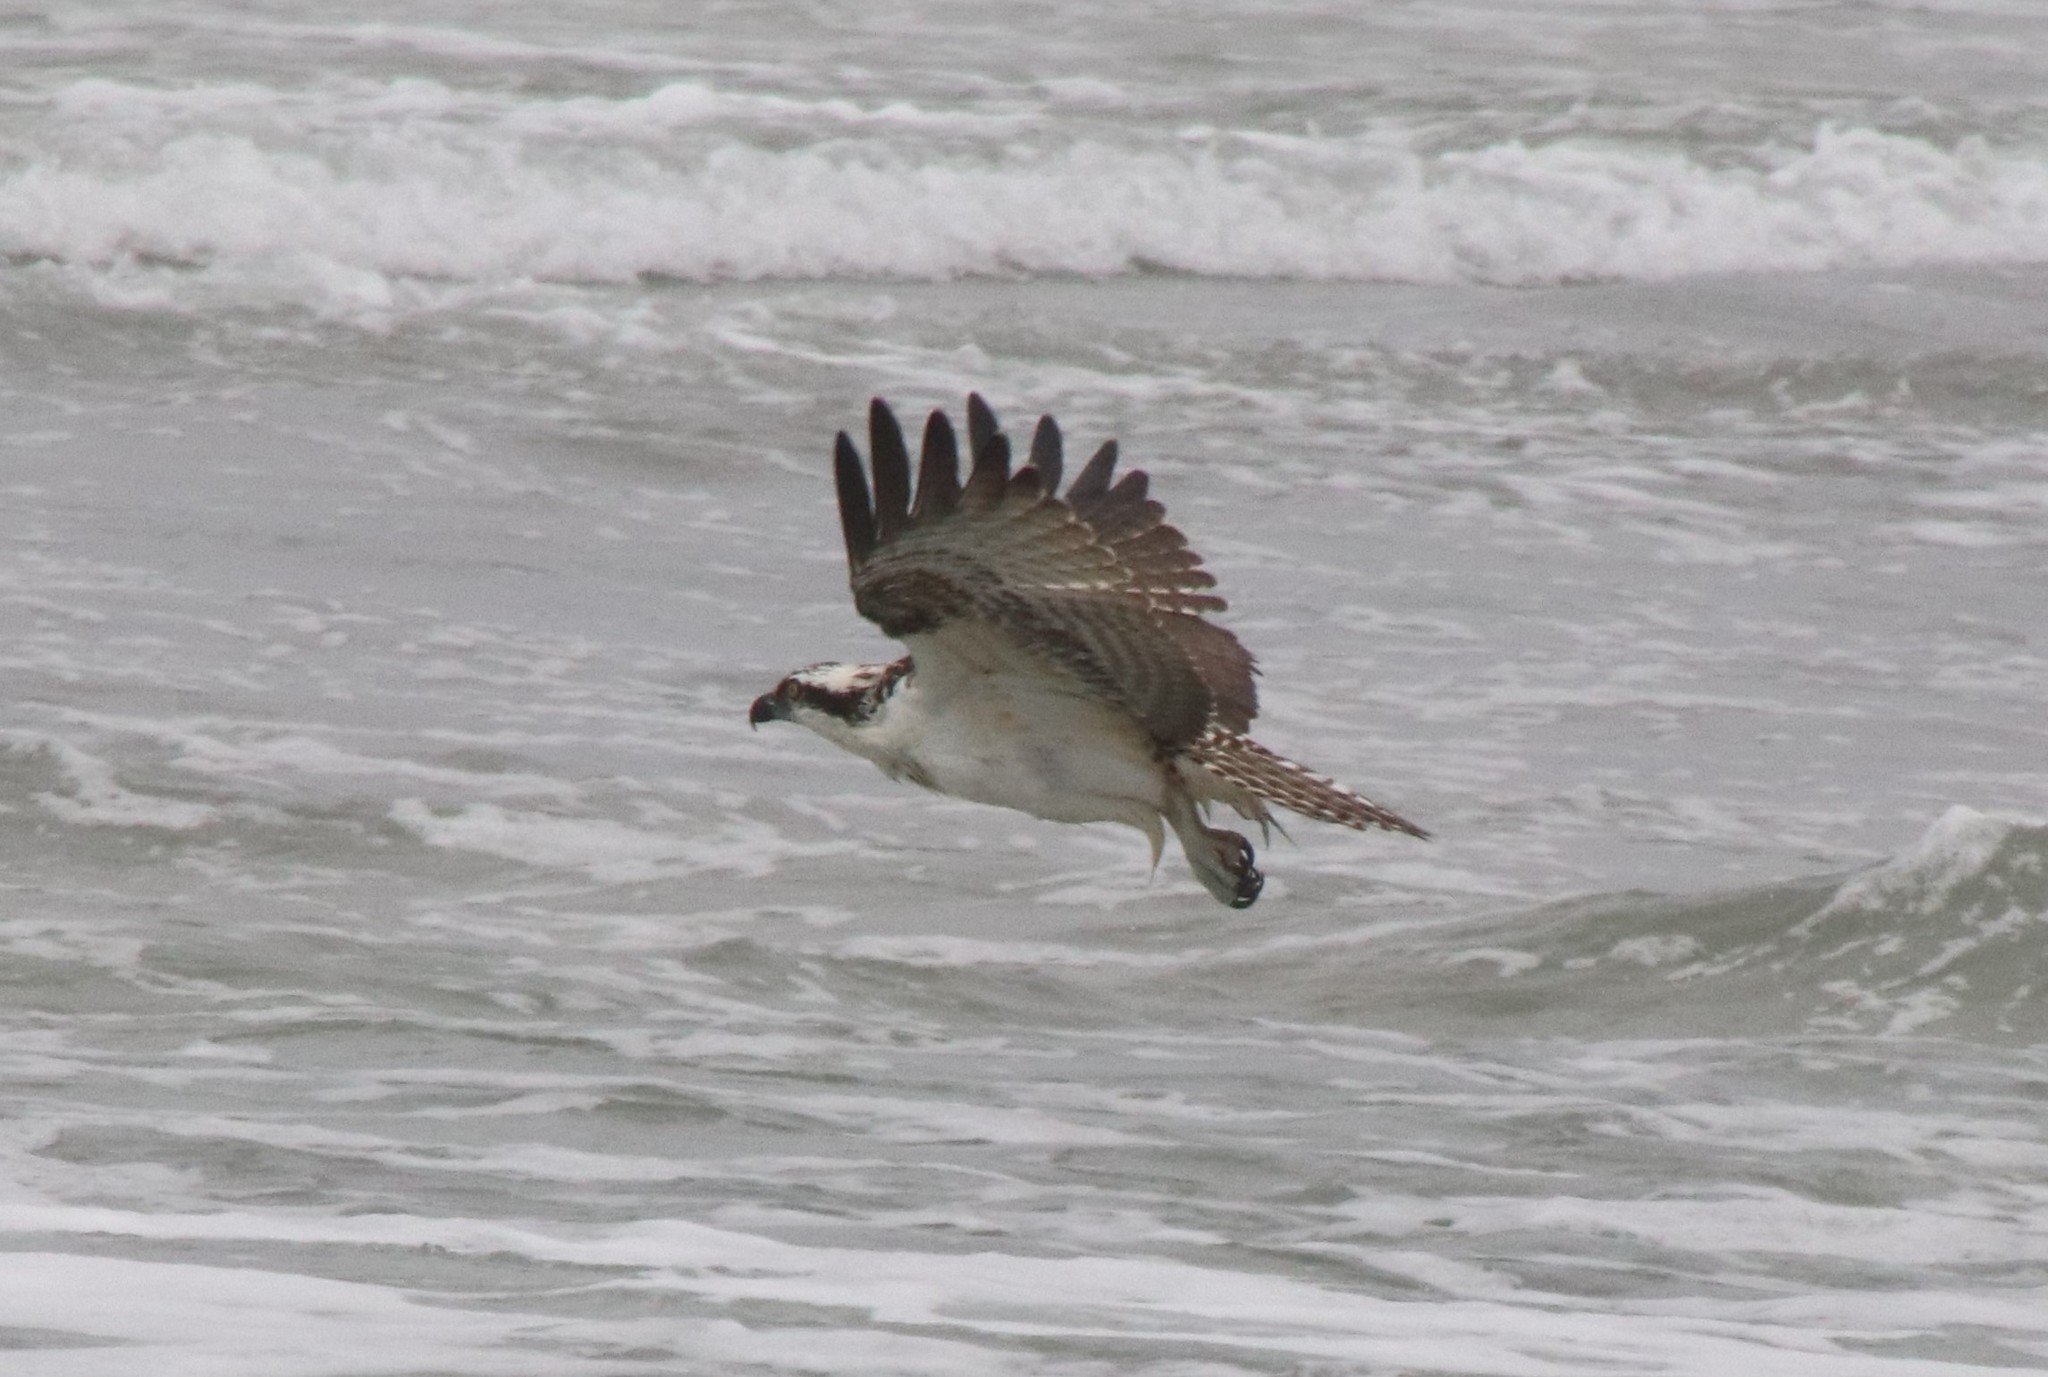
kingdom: Animalia
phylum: Chordata
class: Aves
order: Accipitriformes
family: Pandionidae
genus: Pandion
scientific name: Pandion haliaetus
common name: Osprey
